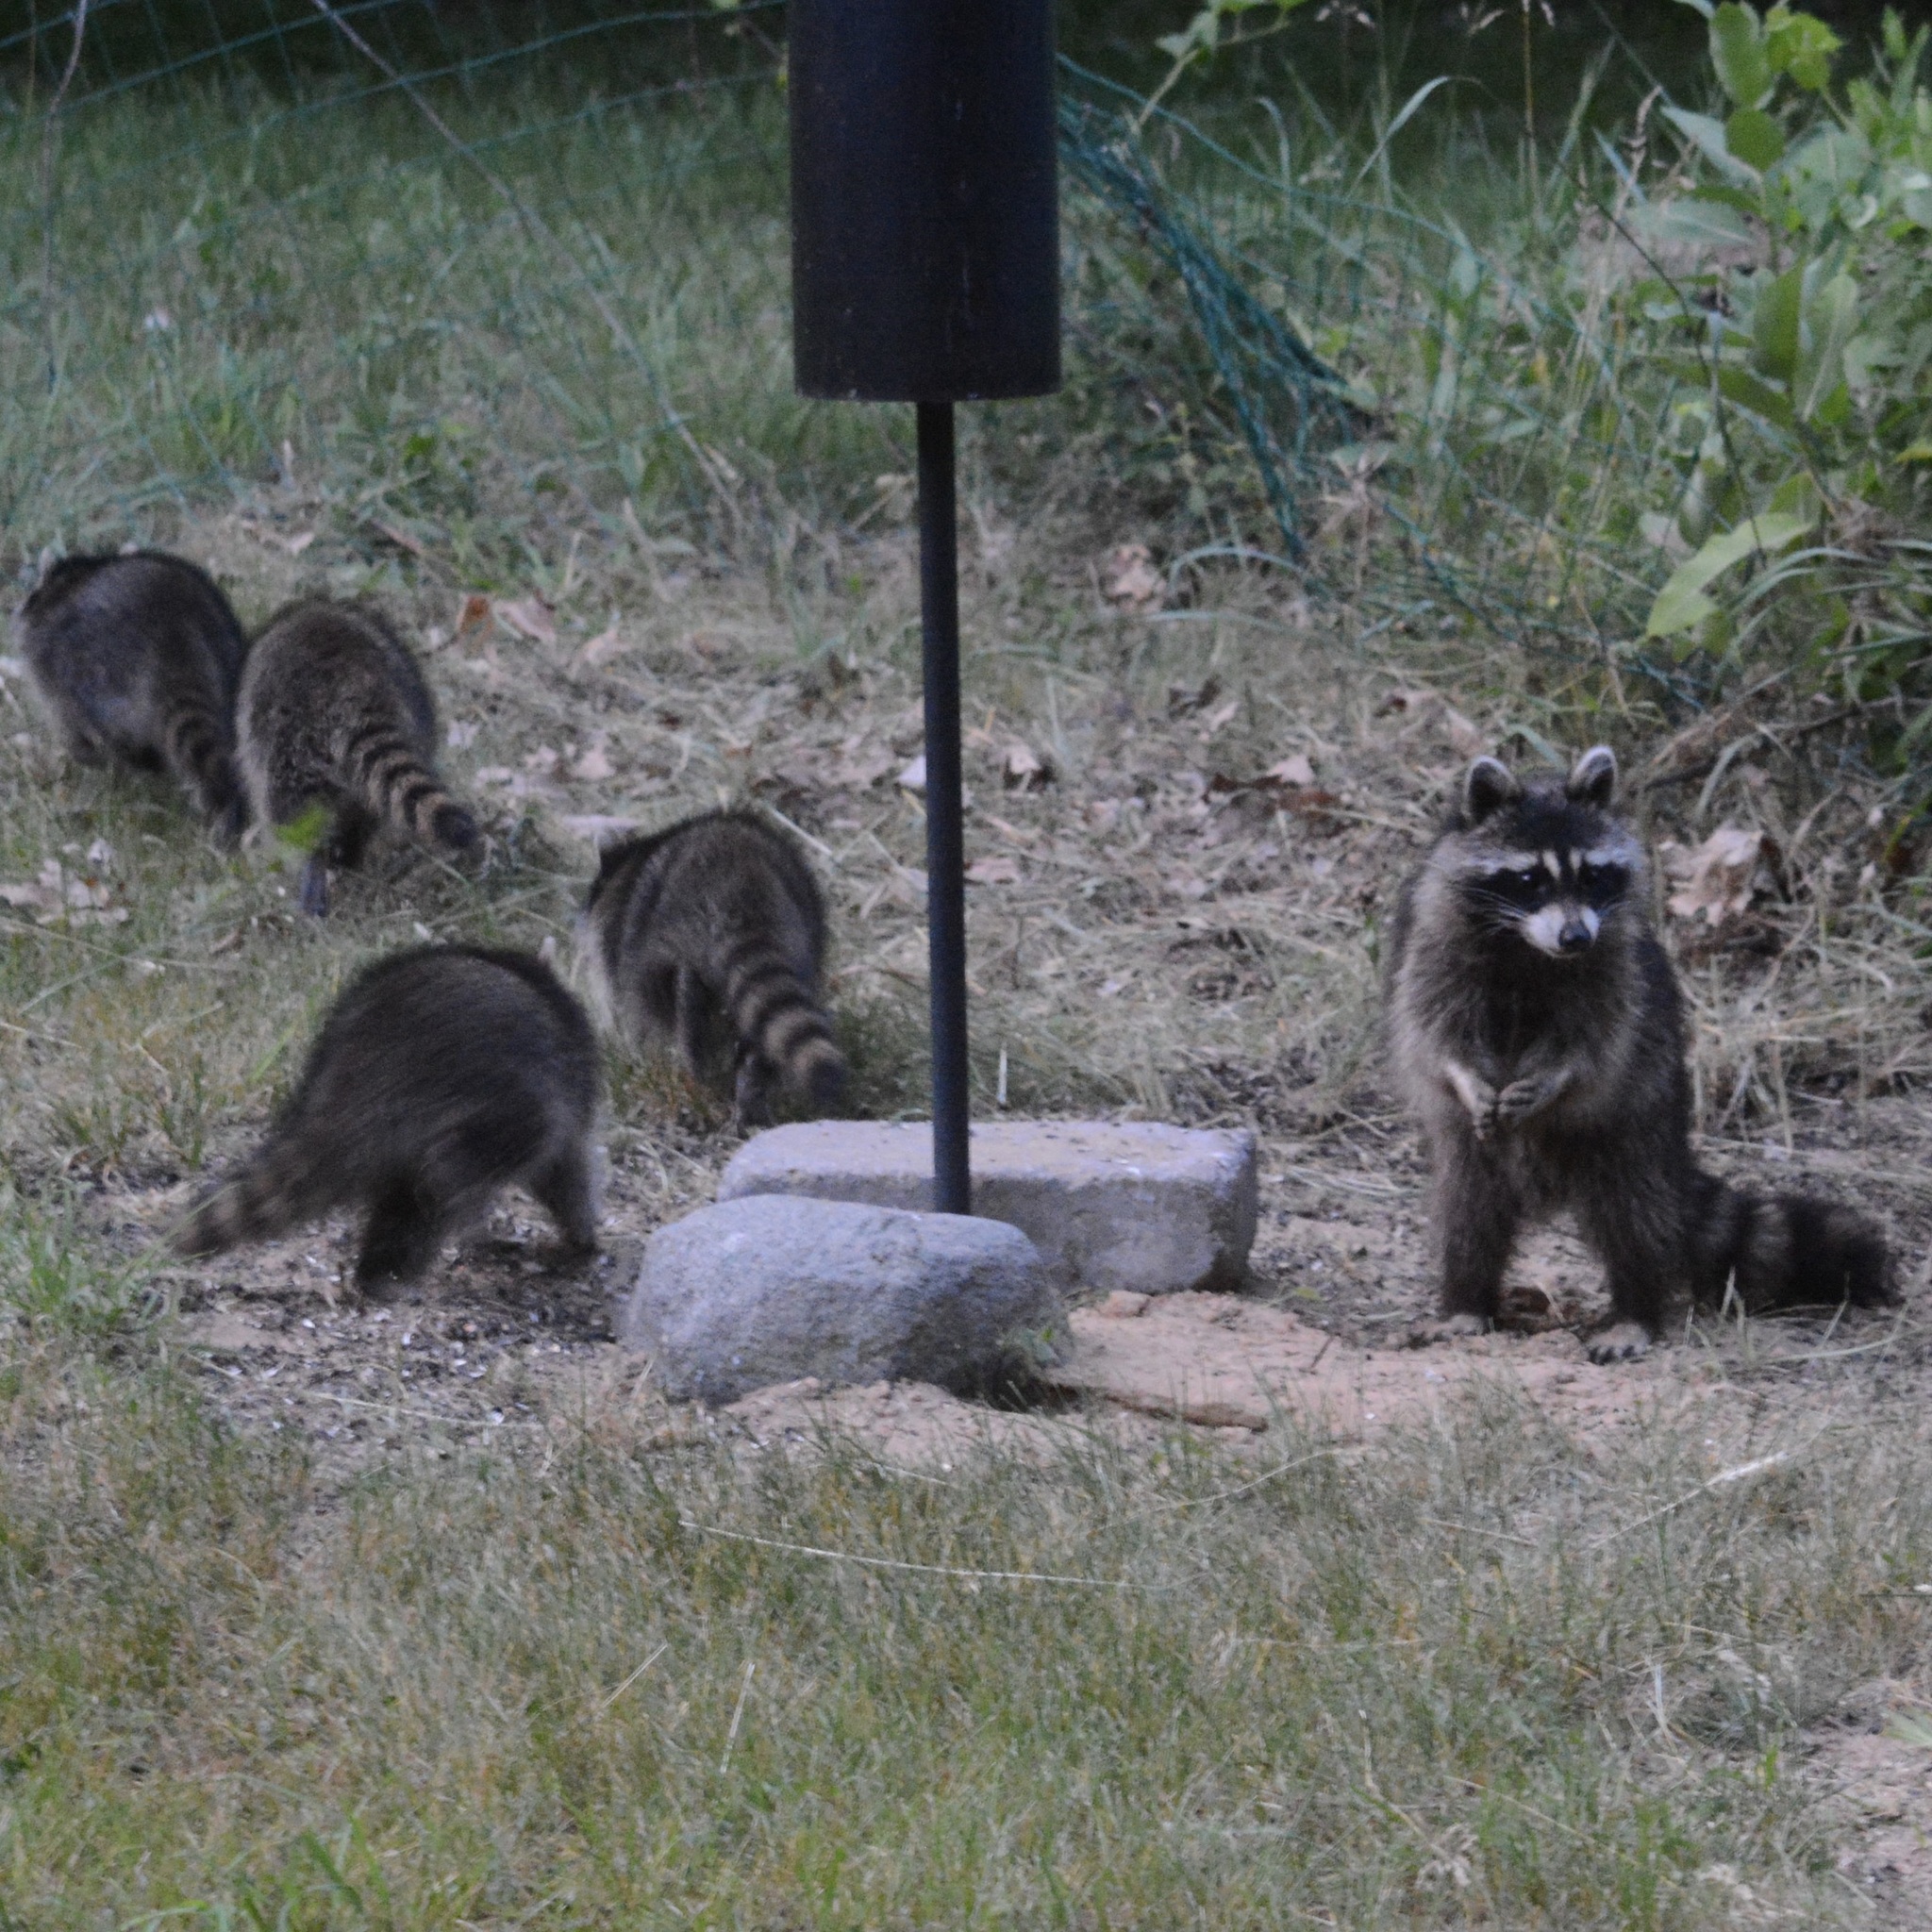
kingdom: Animalia
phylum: Chordata
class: Mammalia
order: Carnivora
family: Procyonidae
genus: Procyon
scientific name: Procyon lotor
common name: Raccoon
